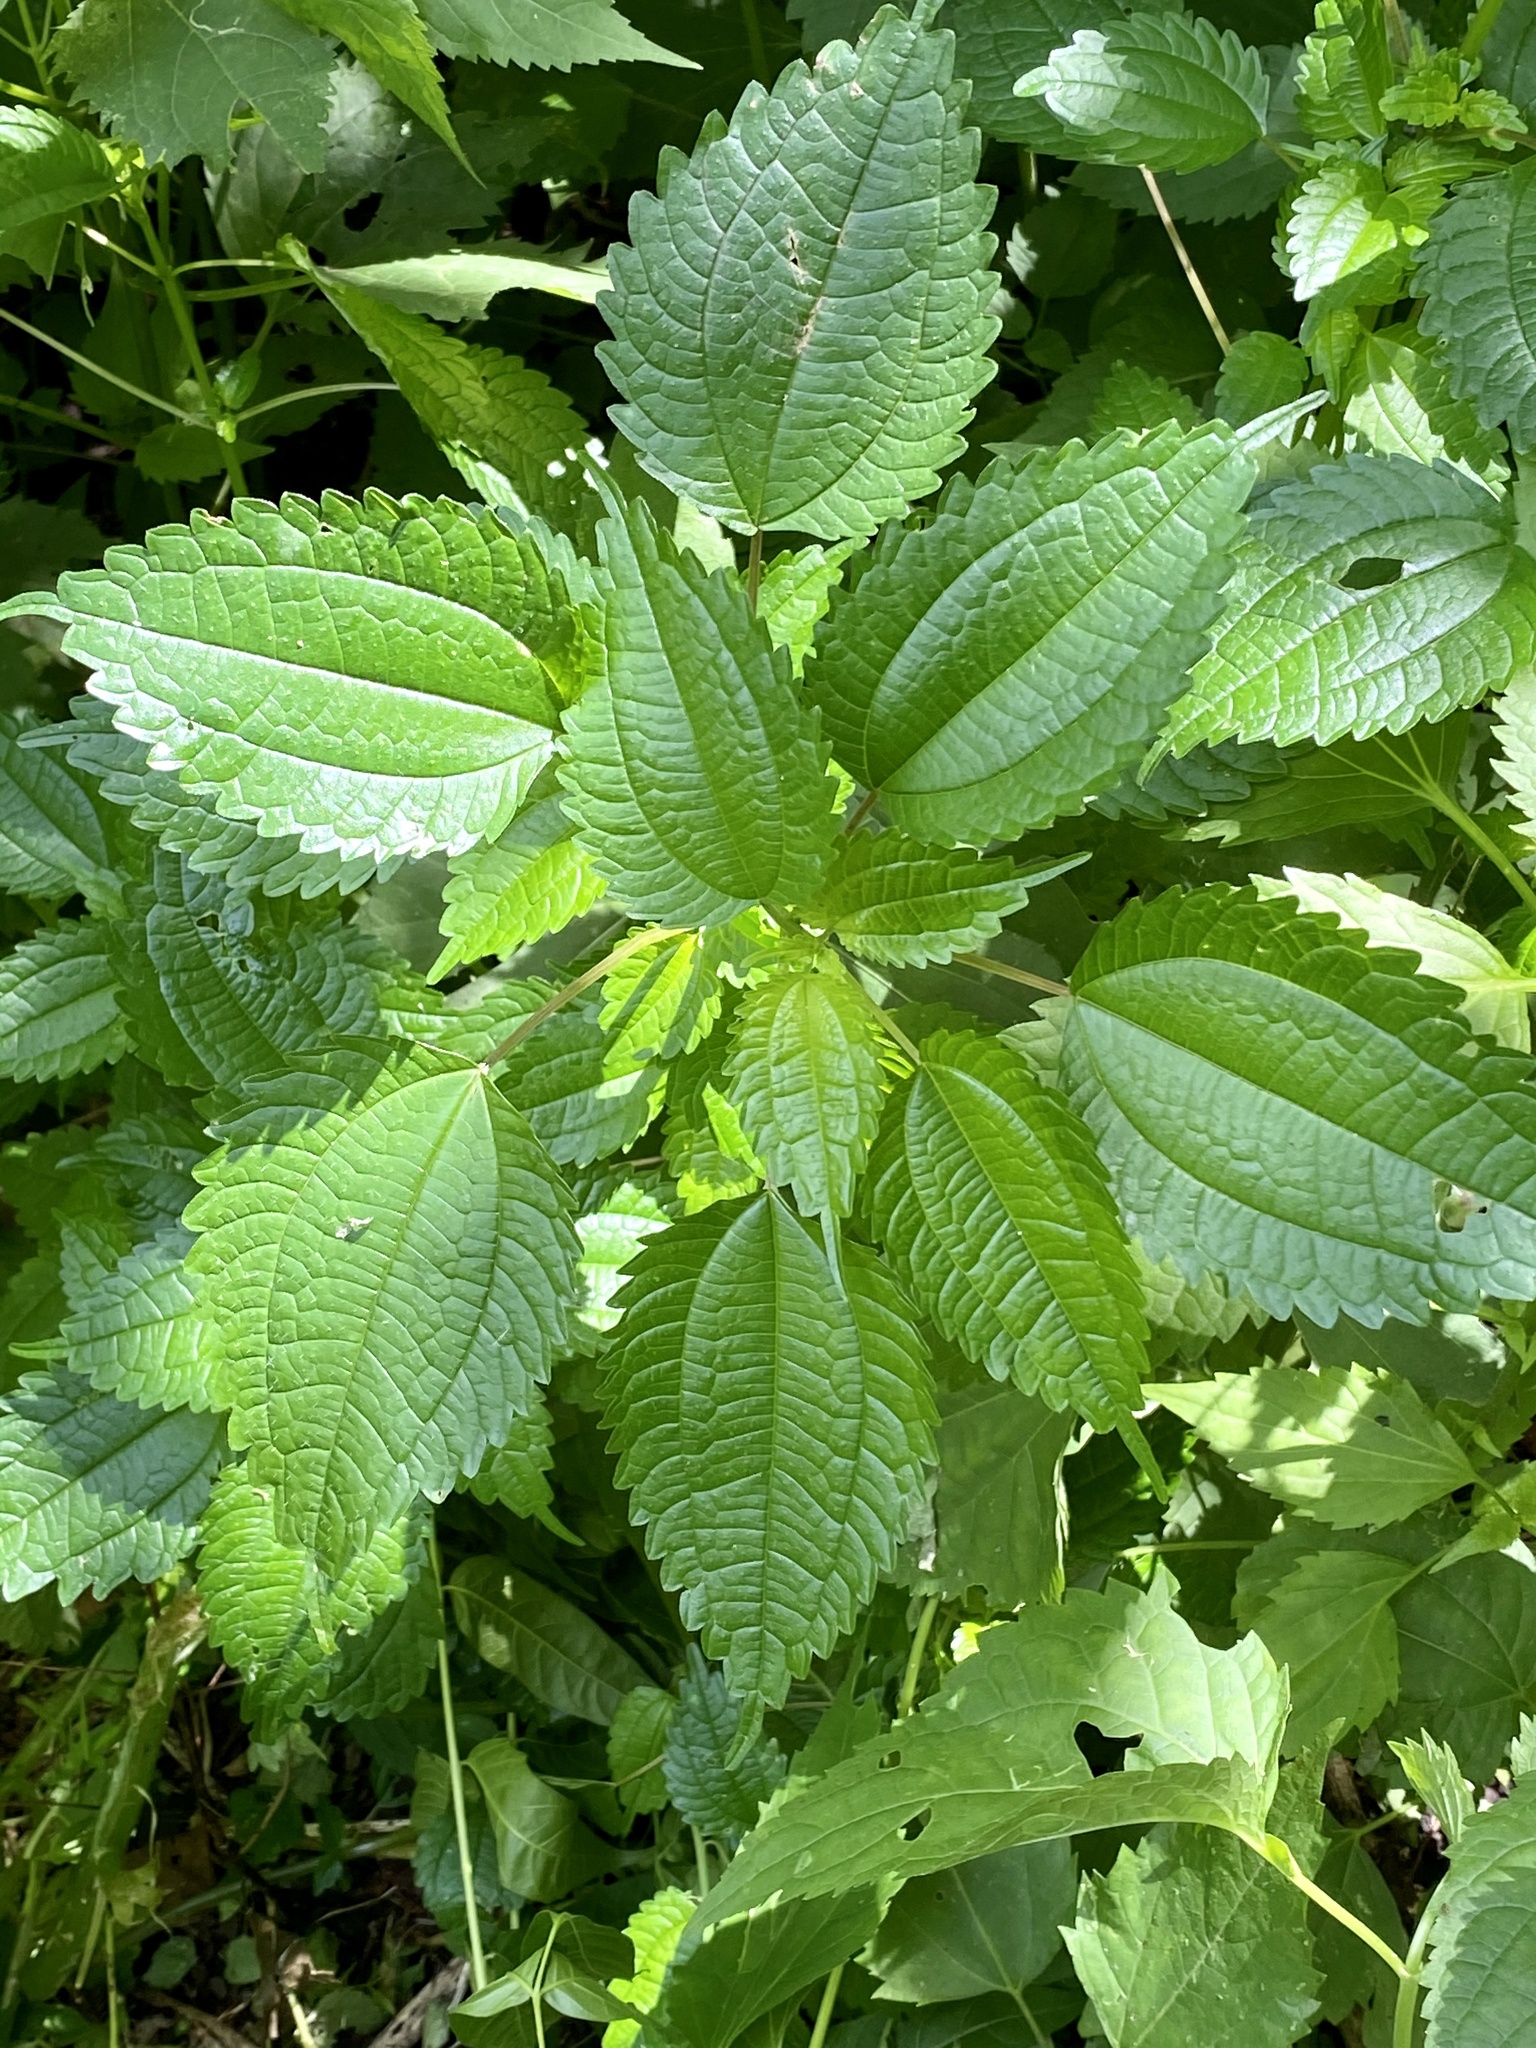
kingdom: Plantae
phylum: Tracheophyta
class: Magnoliopsida
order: Rosales
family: Urticaceae
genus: Pilea
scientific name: Pilea pumila
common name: Clearweed
